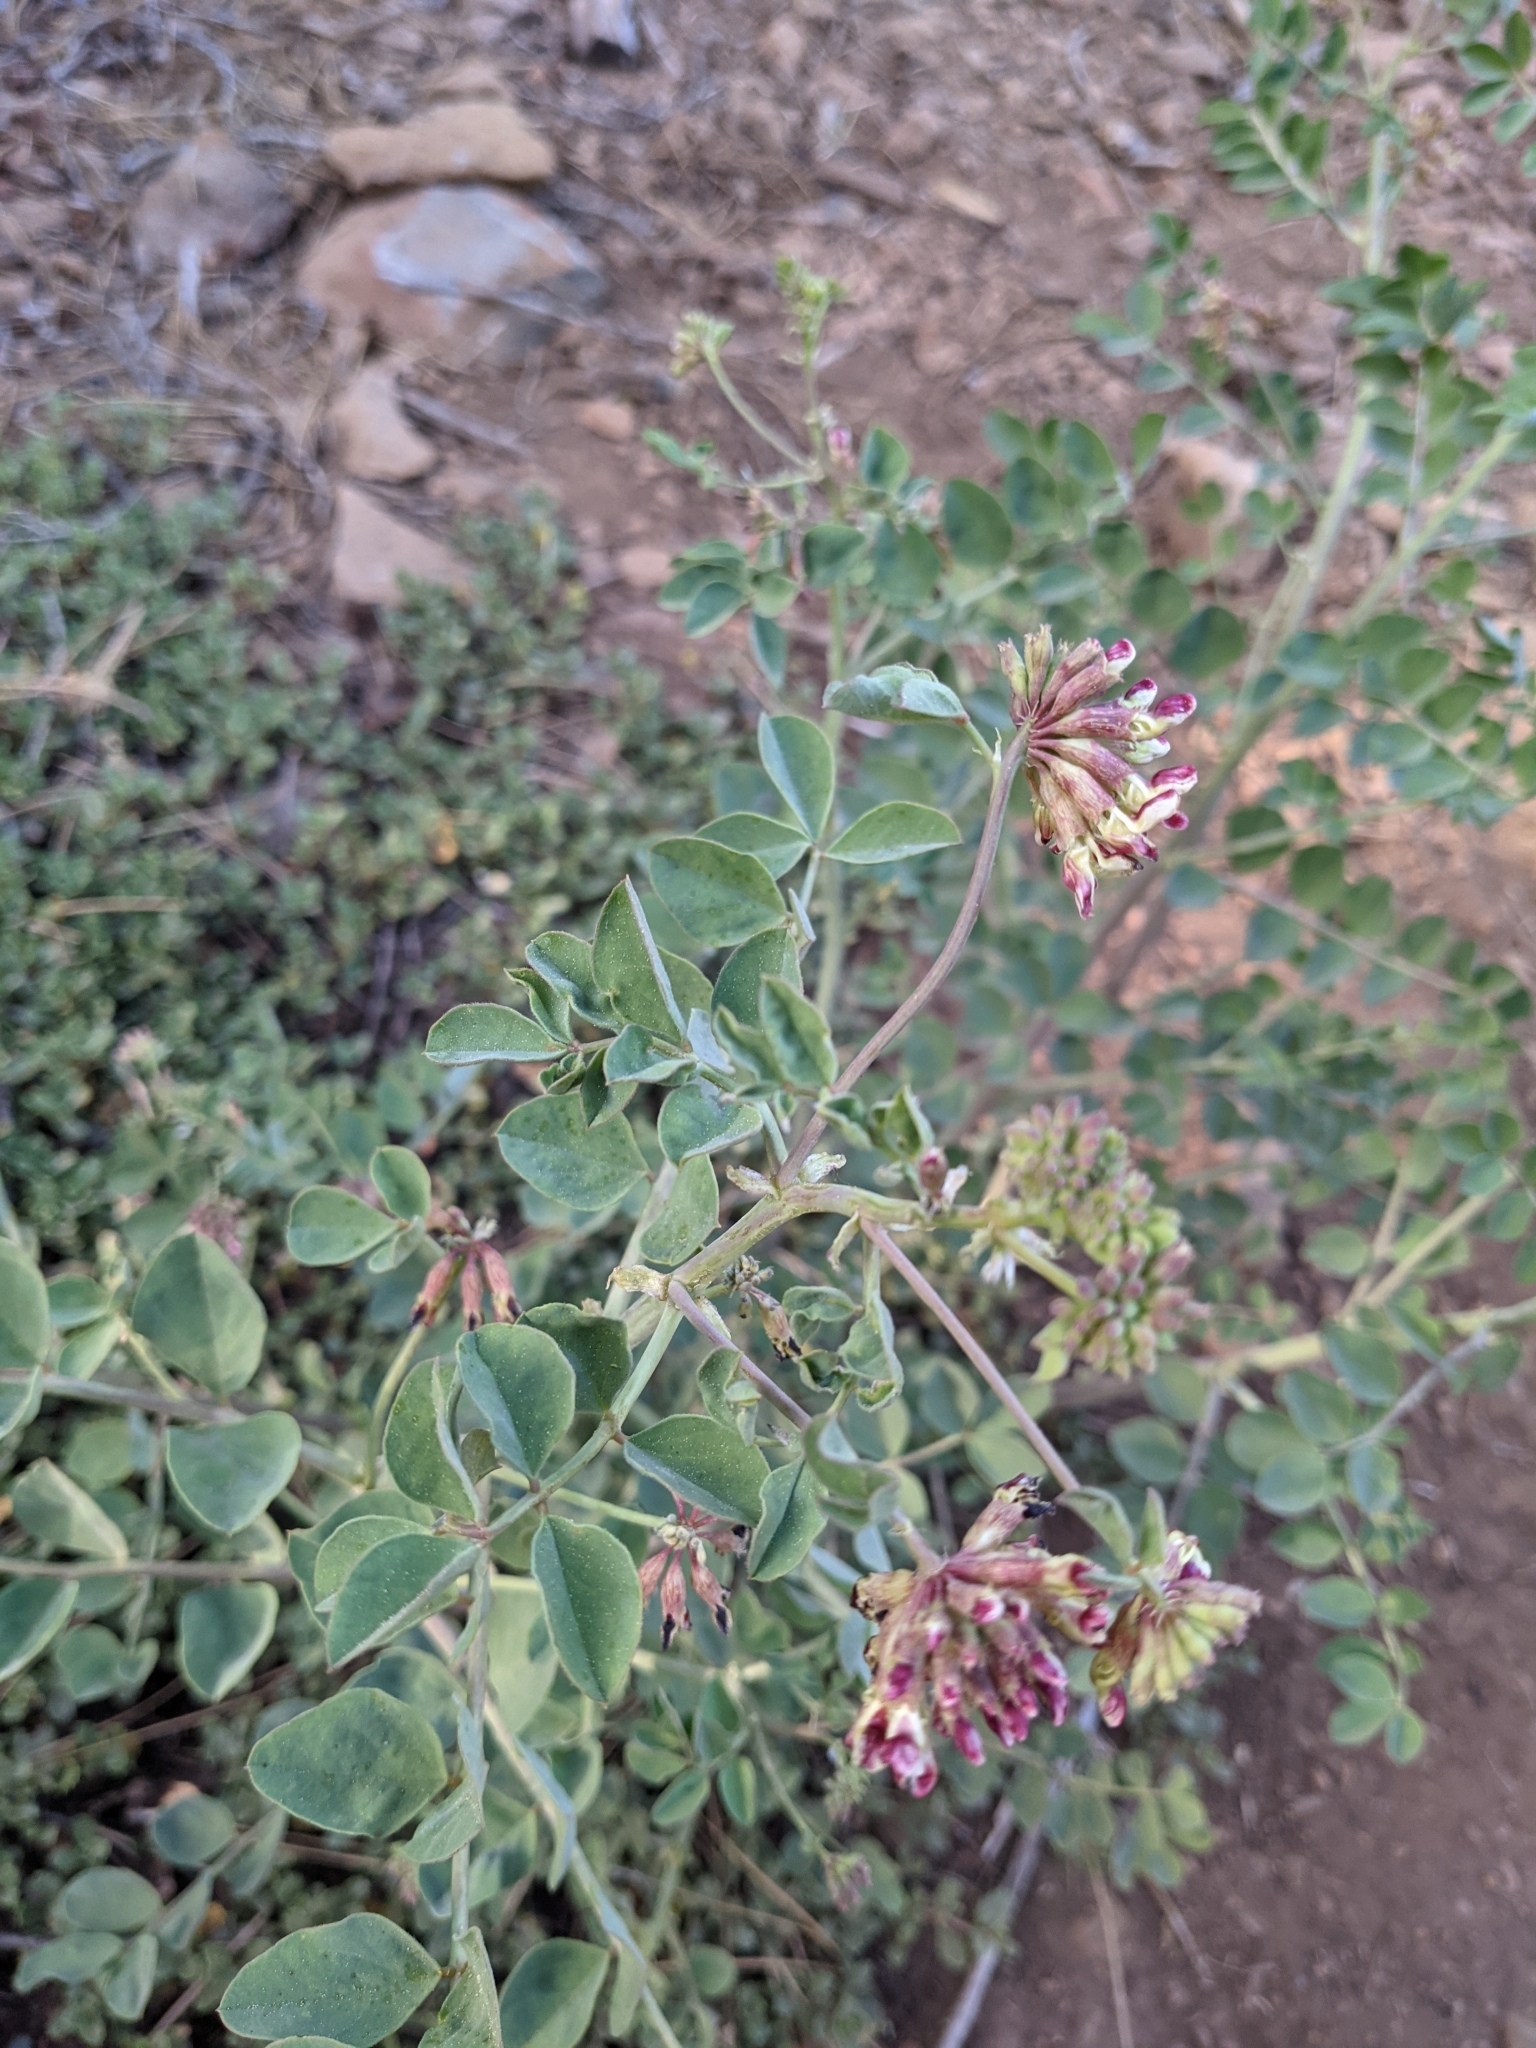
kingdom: Plantae
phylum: Tracheophyta
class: Magnoliopsida
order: Fabales
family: Fabaceae
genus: Hosackia
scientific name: Hosackia crassifolia
